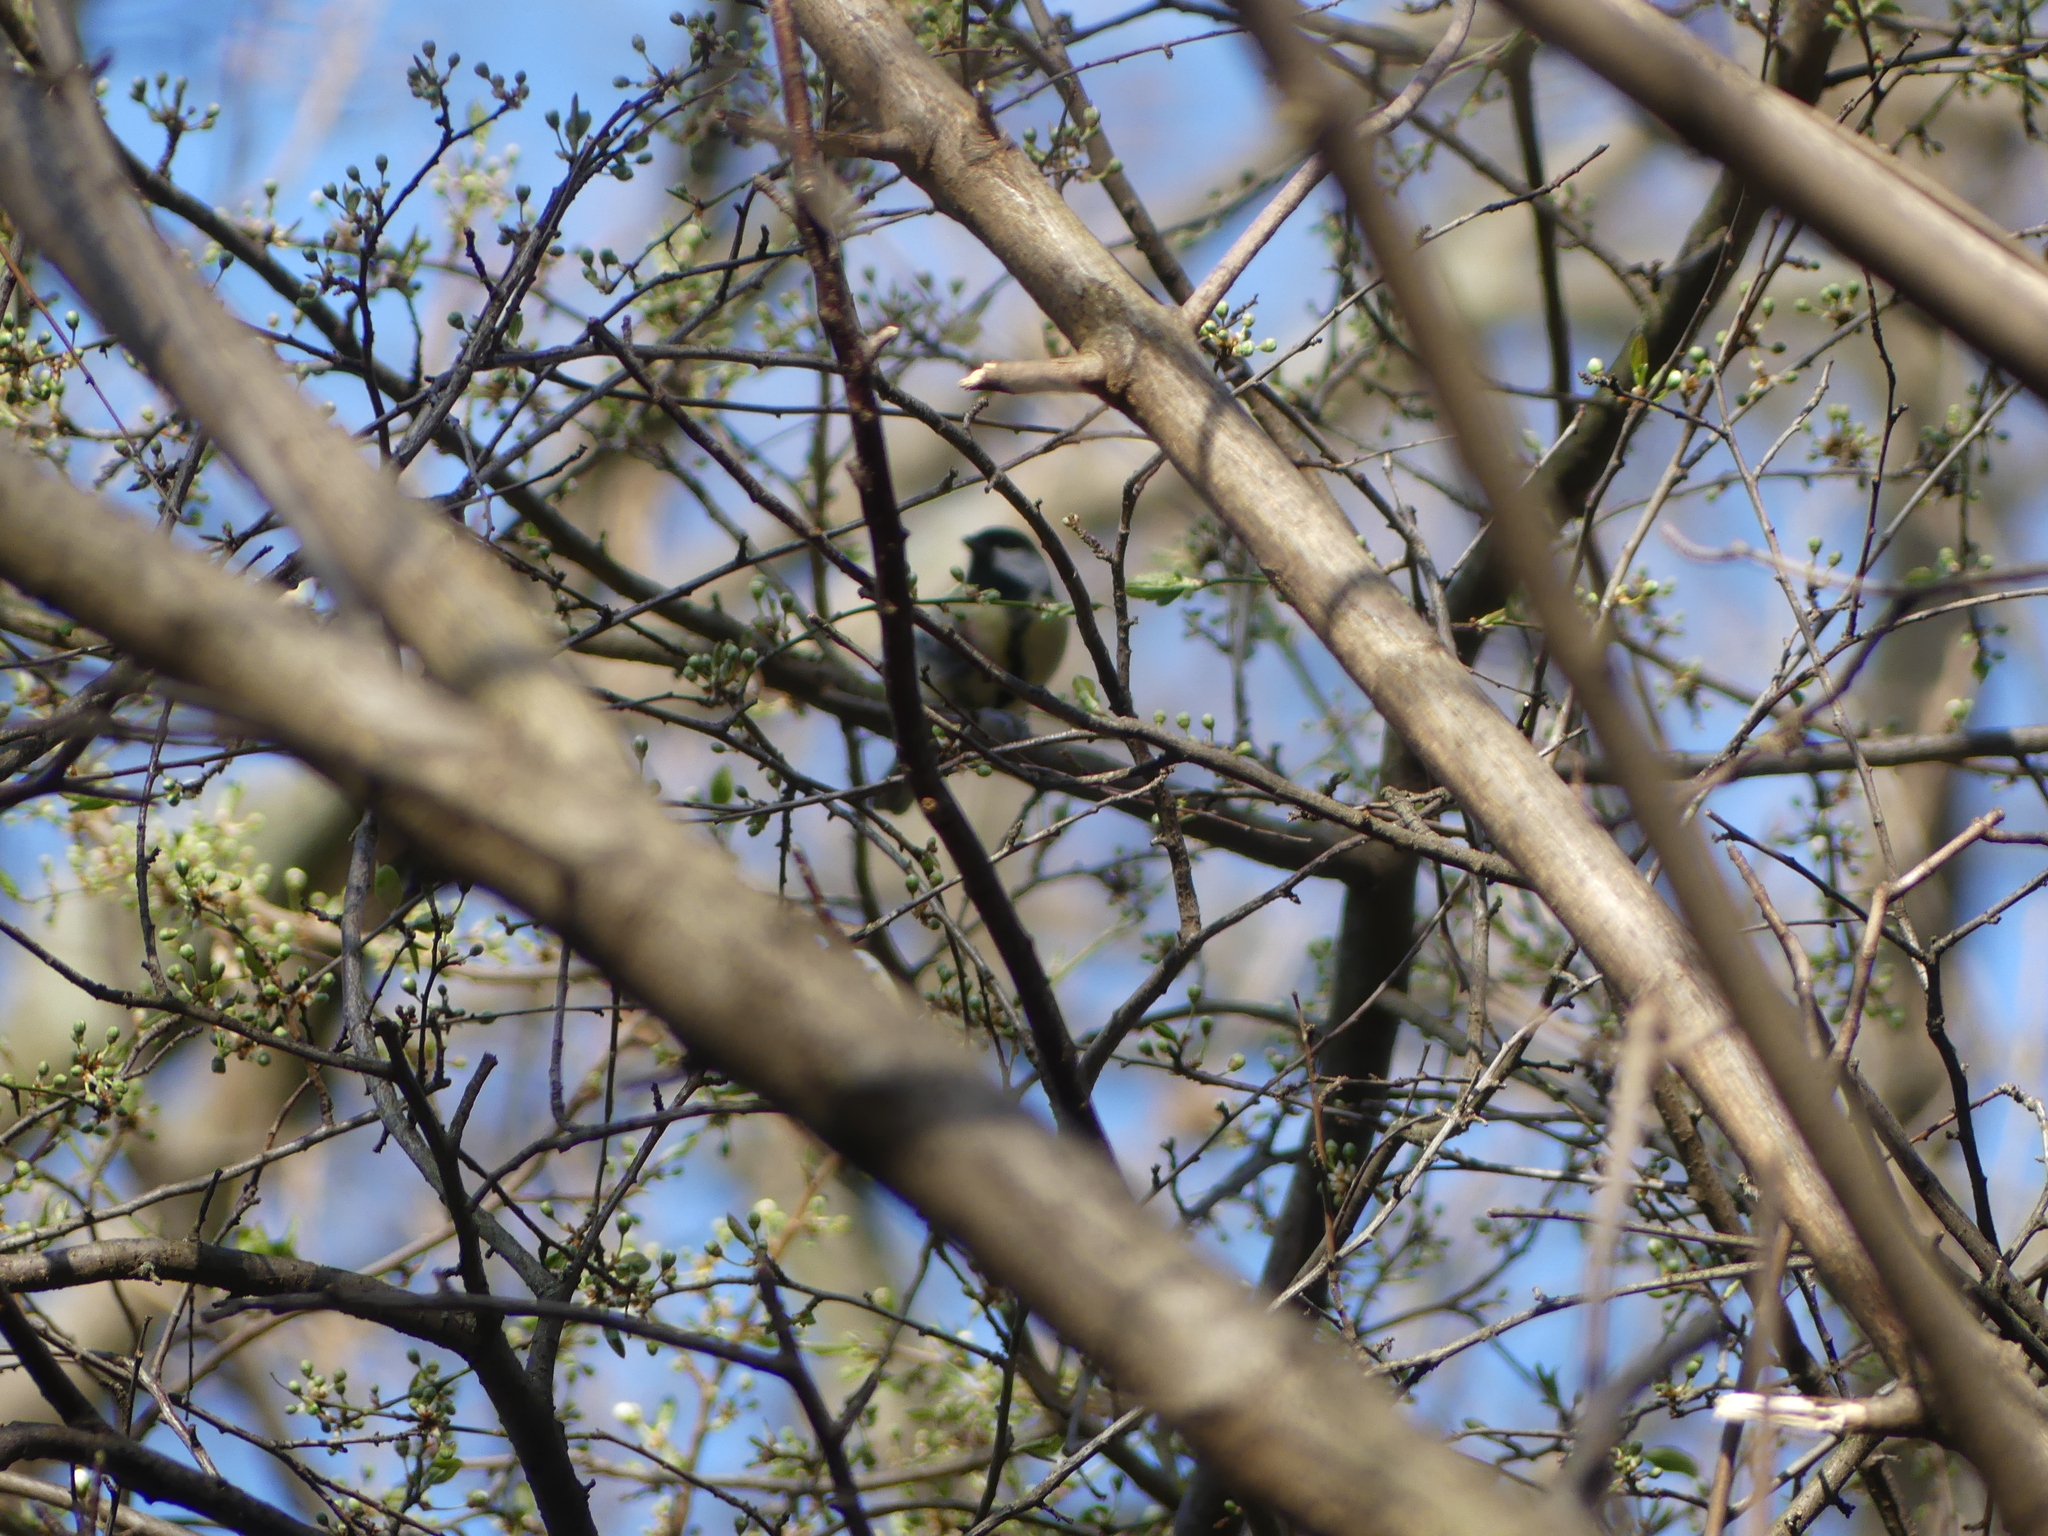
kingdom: Animalia
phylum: Chordata
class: Aves
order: Passeriformes
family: Paridae
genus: Parus
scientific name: Parus major
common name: Great tit
